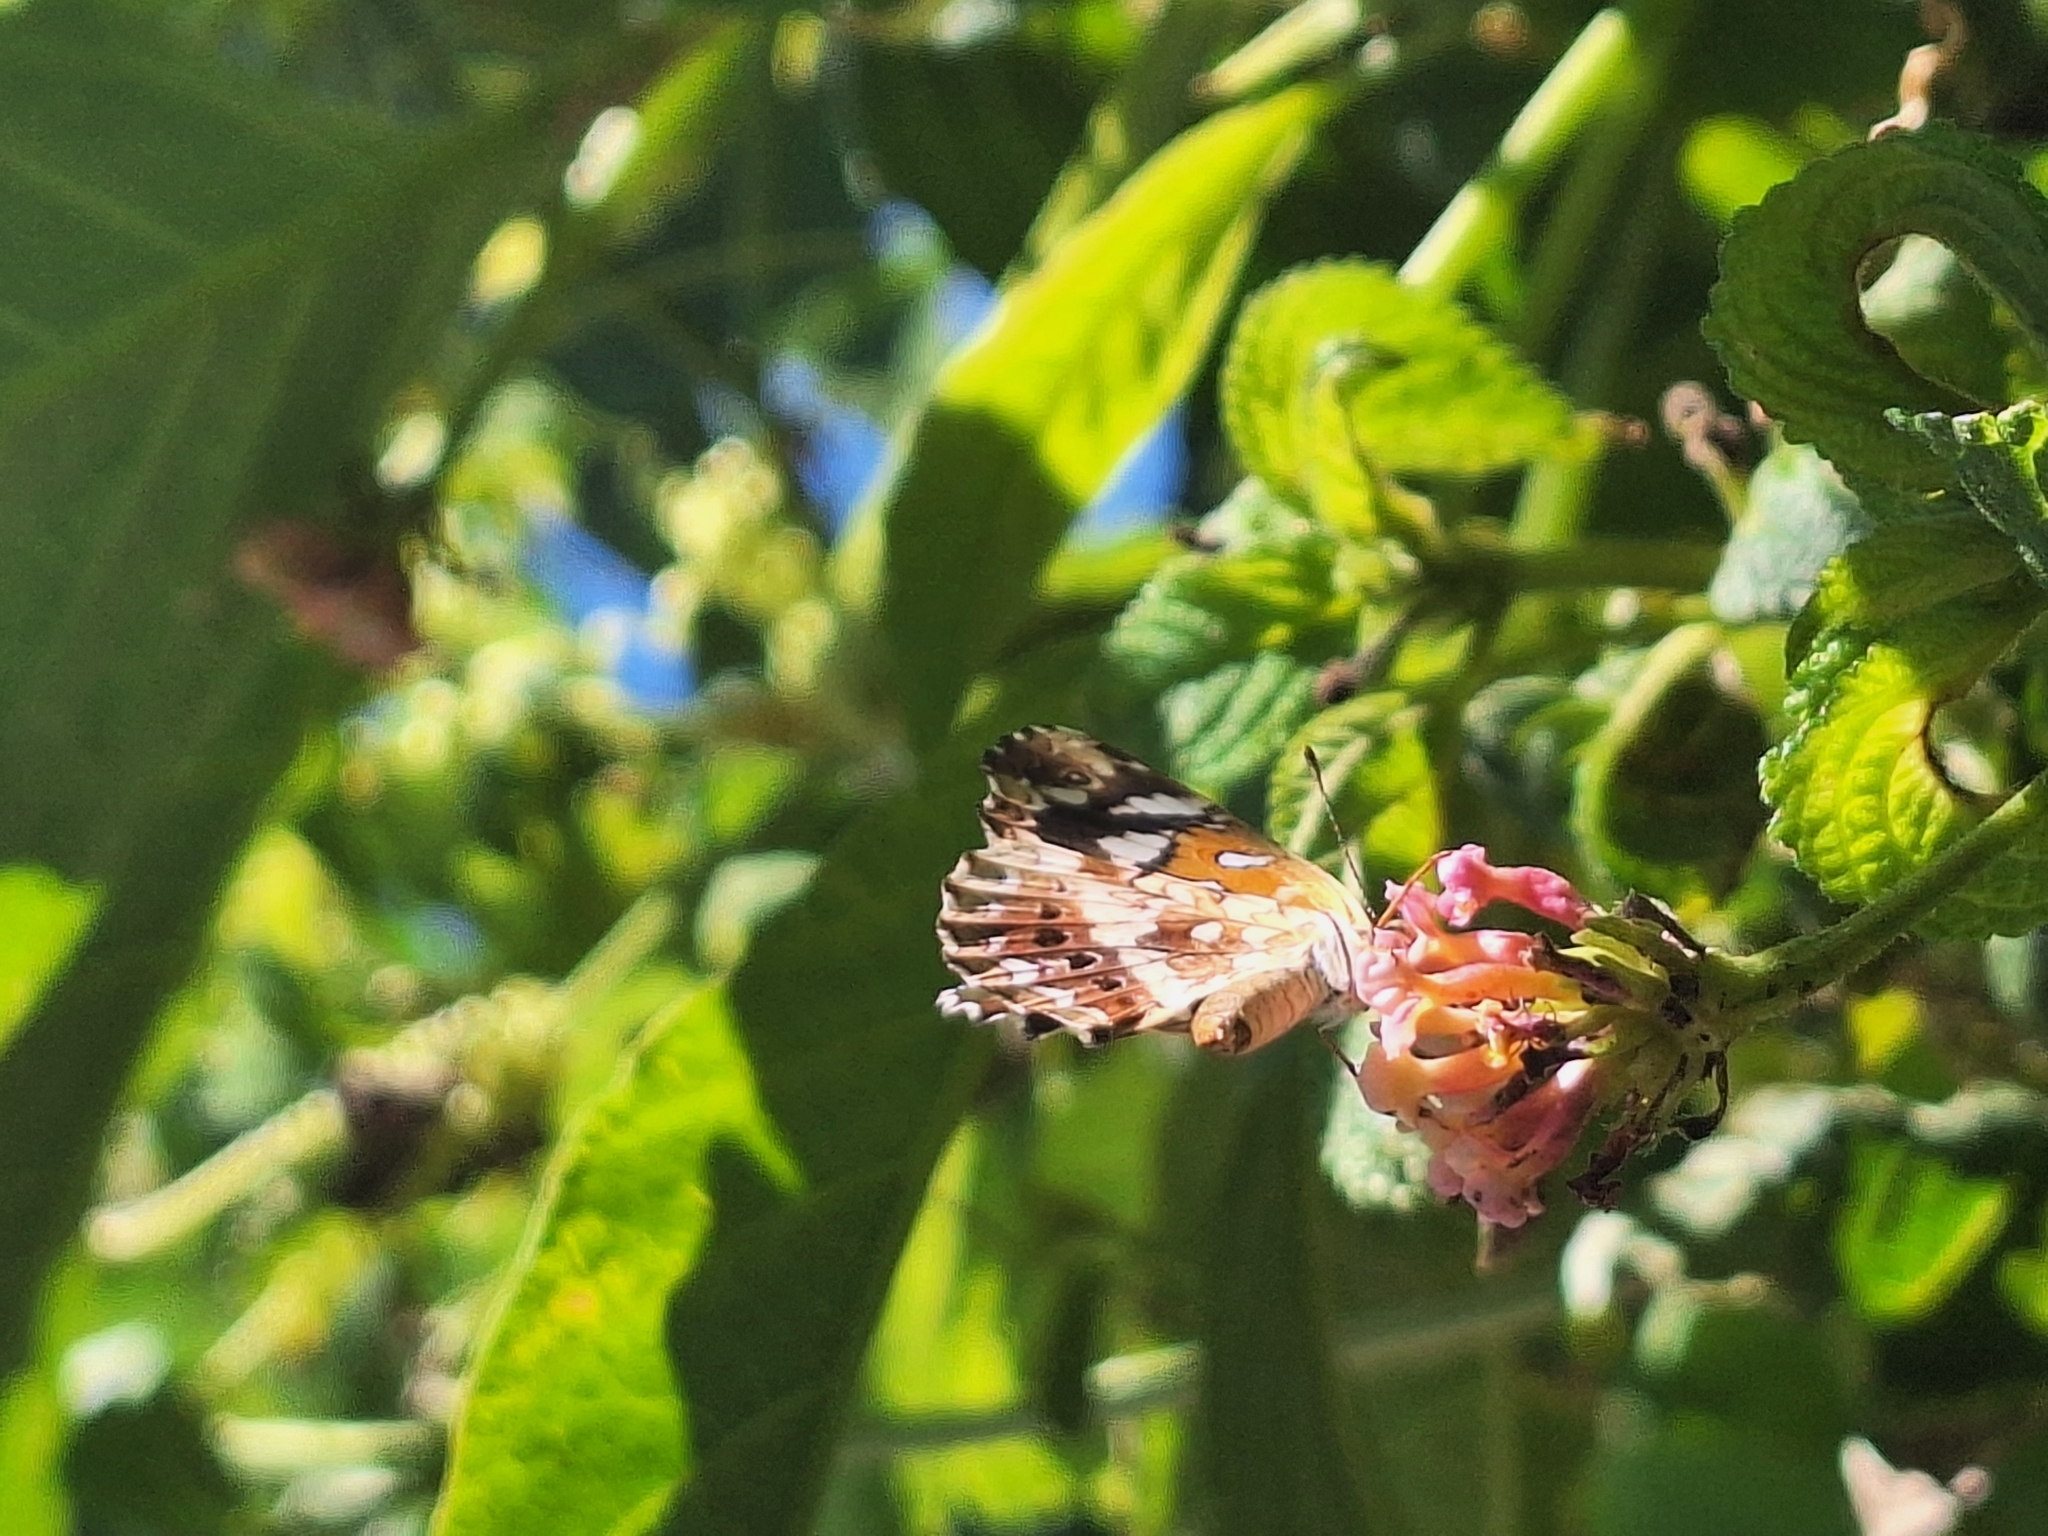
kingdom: Animalia
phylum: Arthropoda
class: Insecta
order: Lepidoptera
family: Nymphalidae
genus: Ortilia
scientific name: Ortilia ithra
